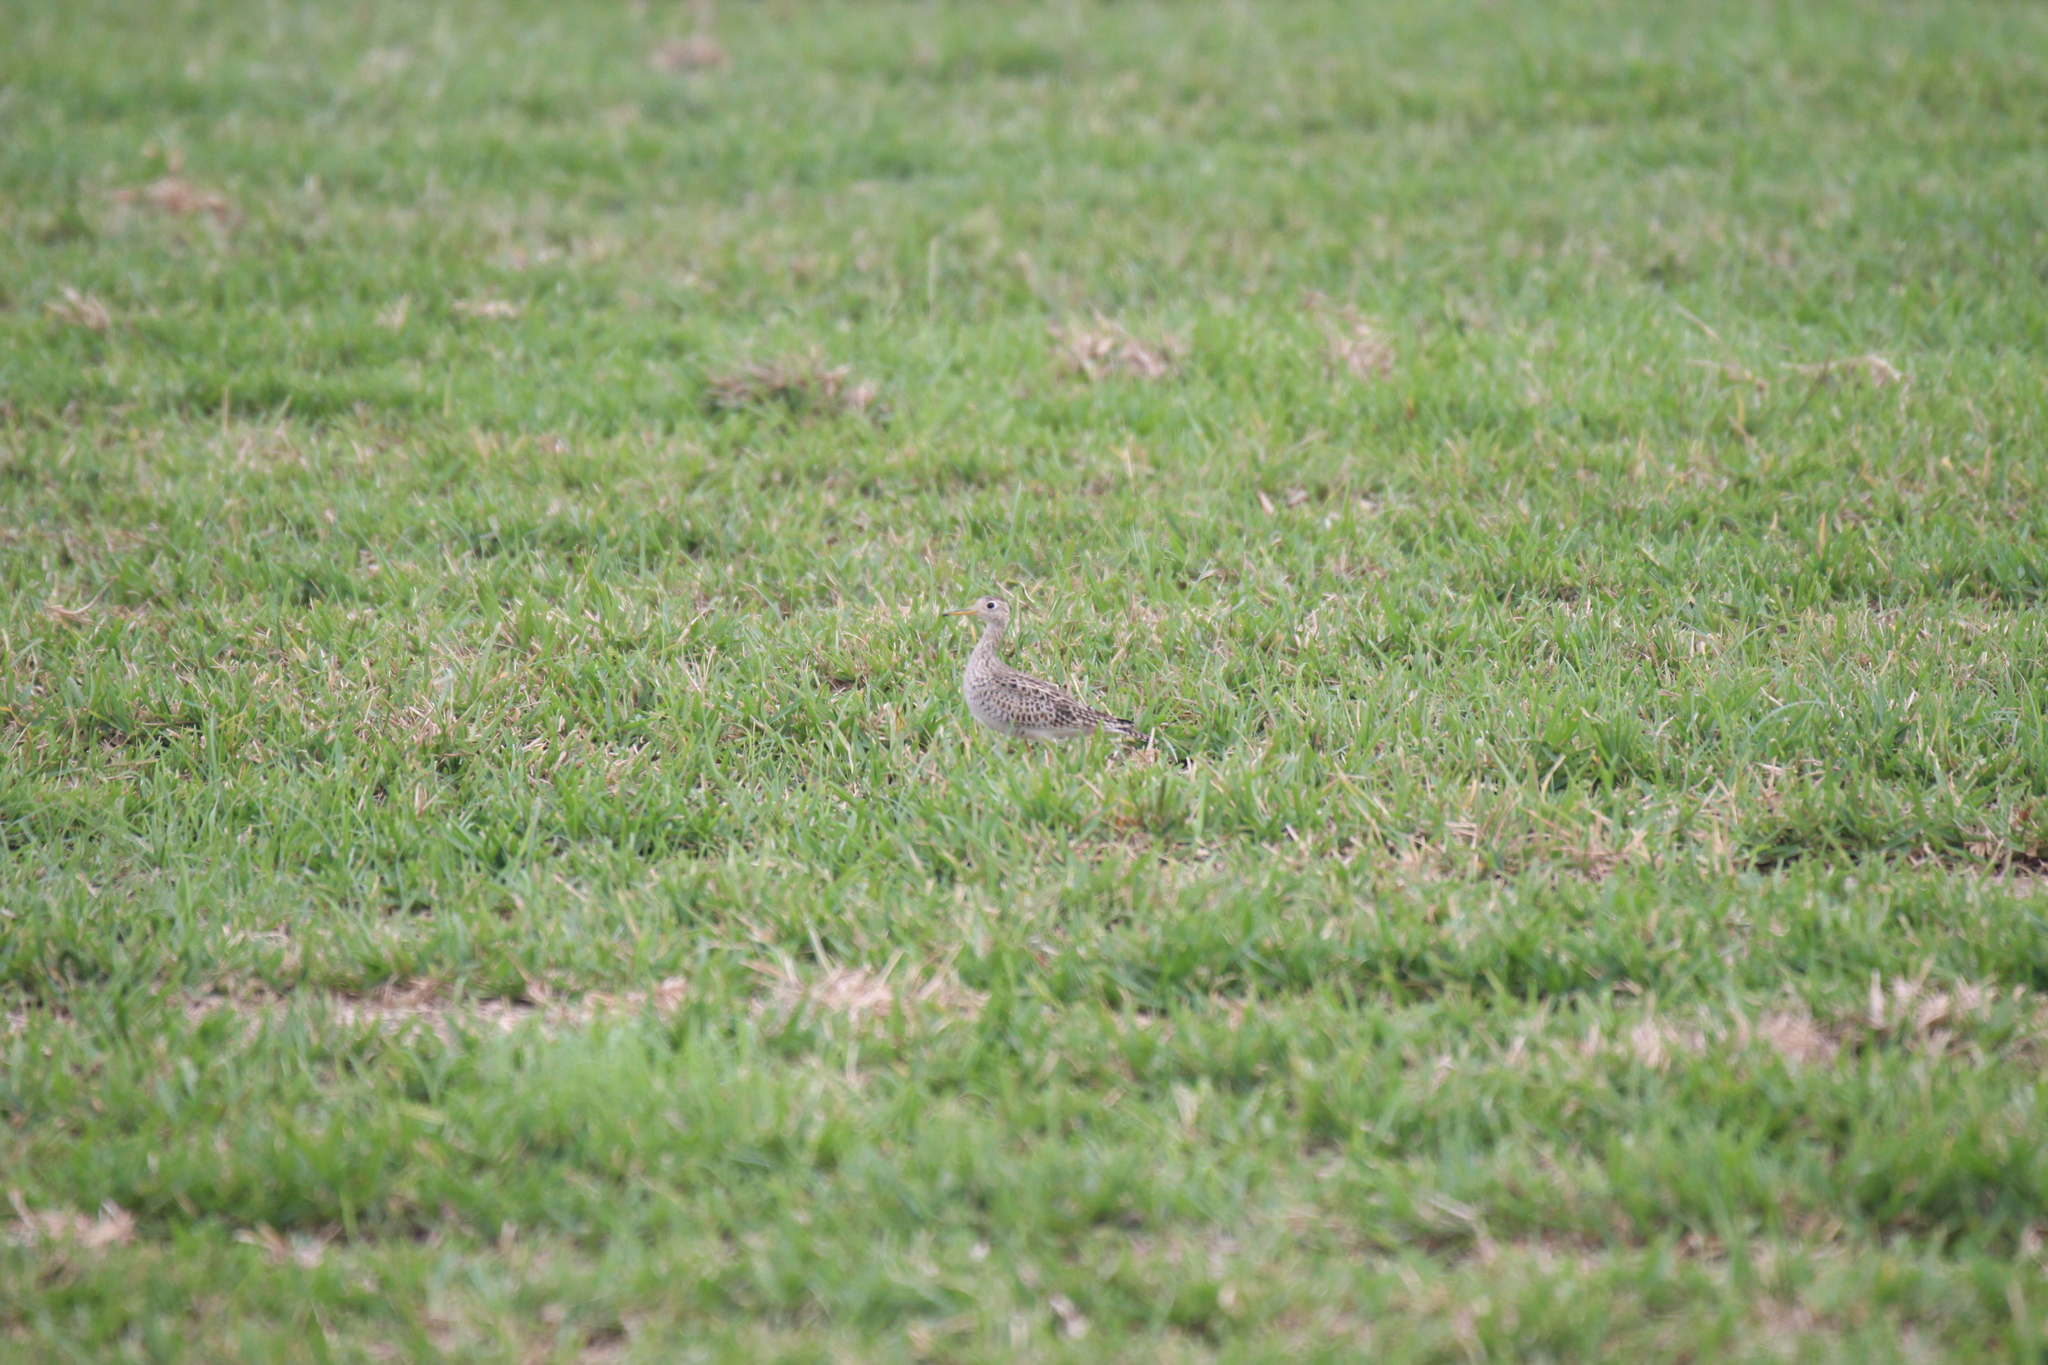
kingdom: Animalia
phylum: Chordata
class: Aves
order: Charadriiformes
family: Scolopacidae
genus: Bartramia
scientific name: Bartramia longicauda
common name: Upland sandpiper
